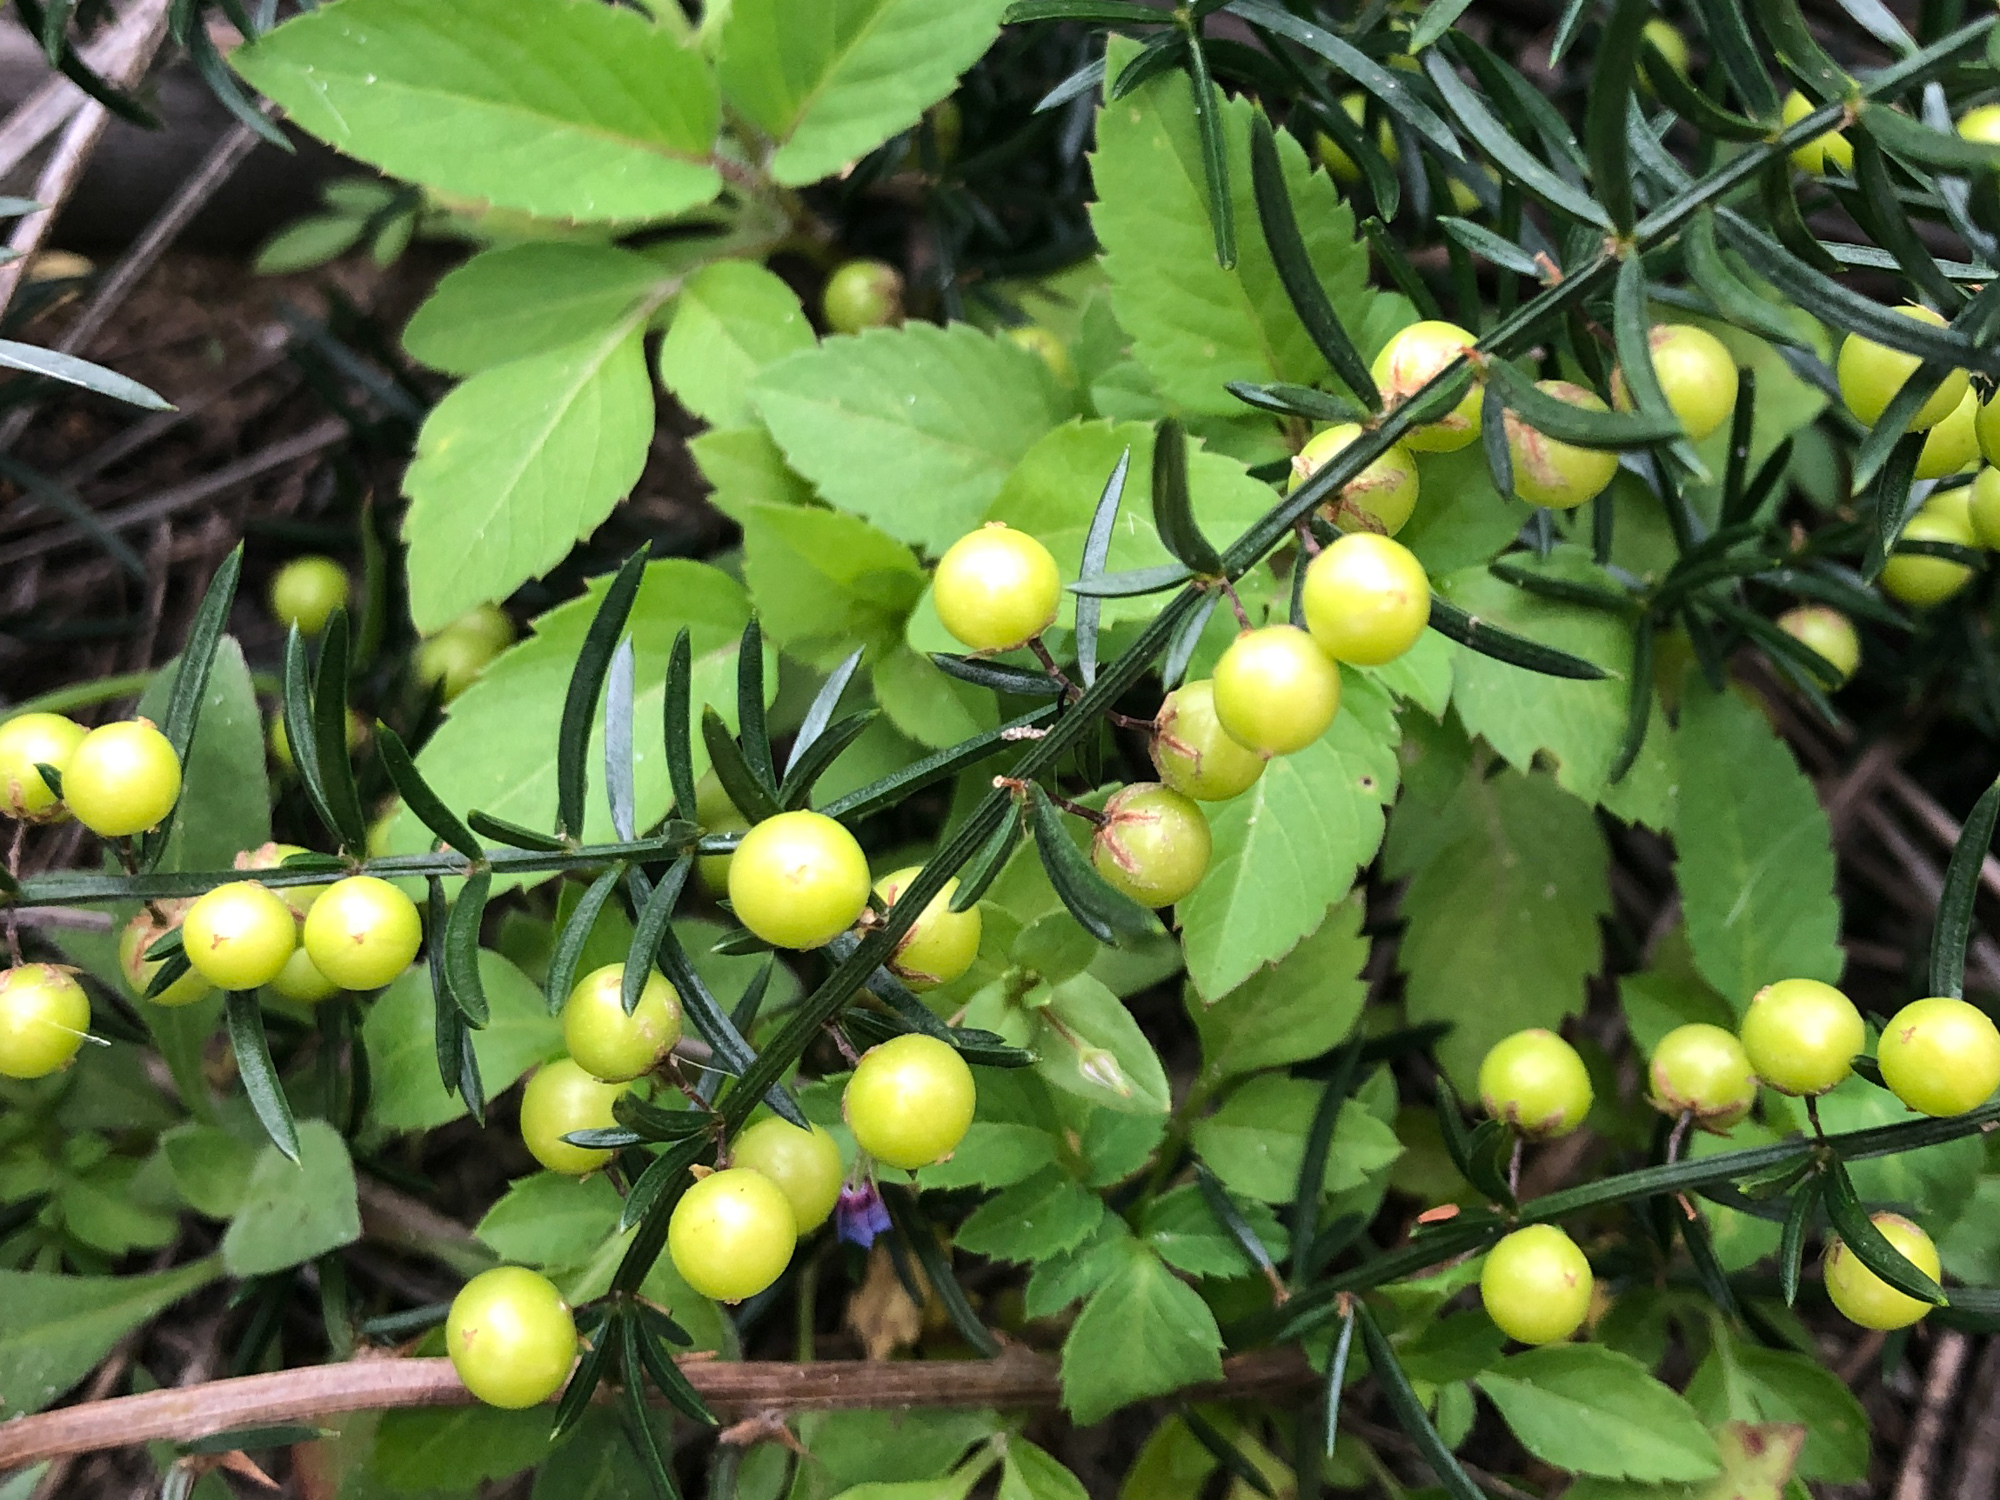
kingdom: Plantae
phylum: Tracheophyta
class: Liliopsida
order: Asparagales
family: Asparagaceae
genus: Asparagus
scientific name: Asparagus cochinchinensis
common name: Chinese asparagus
